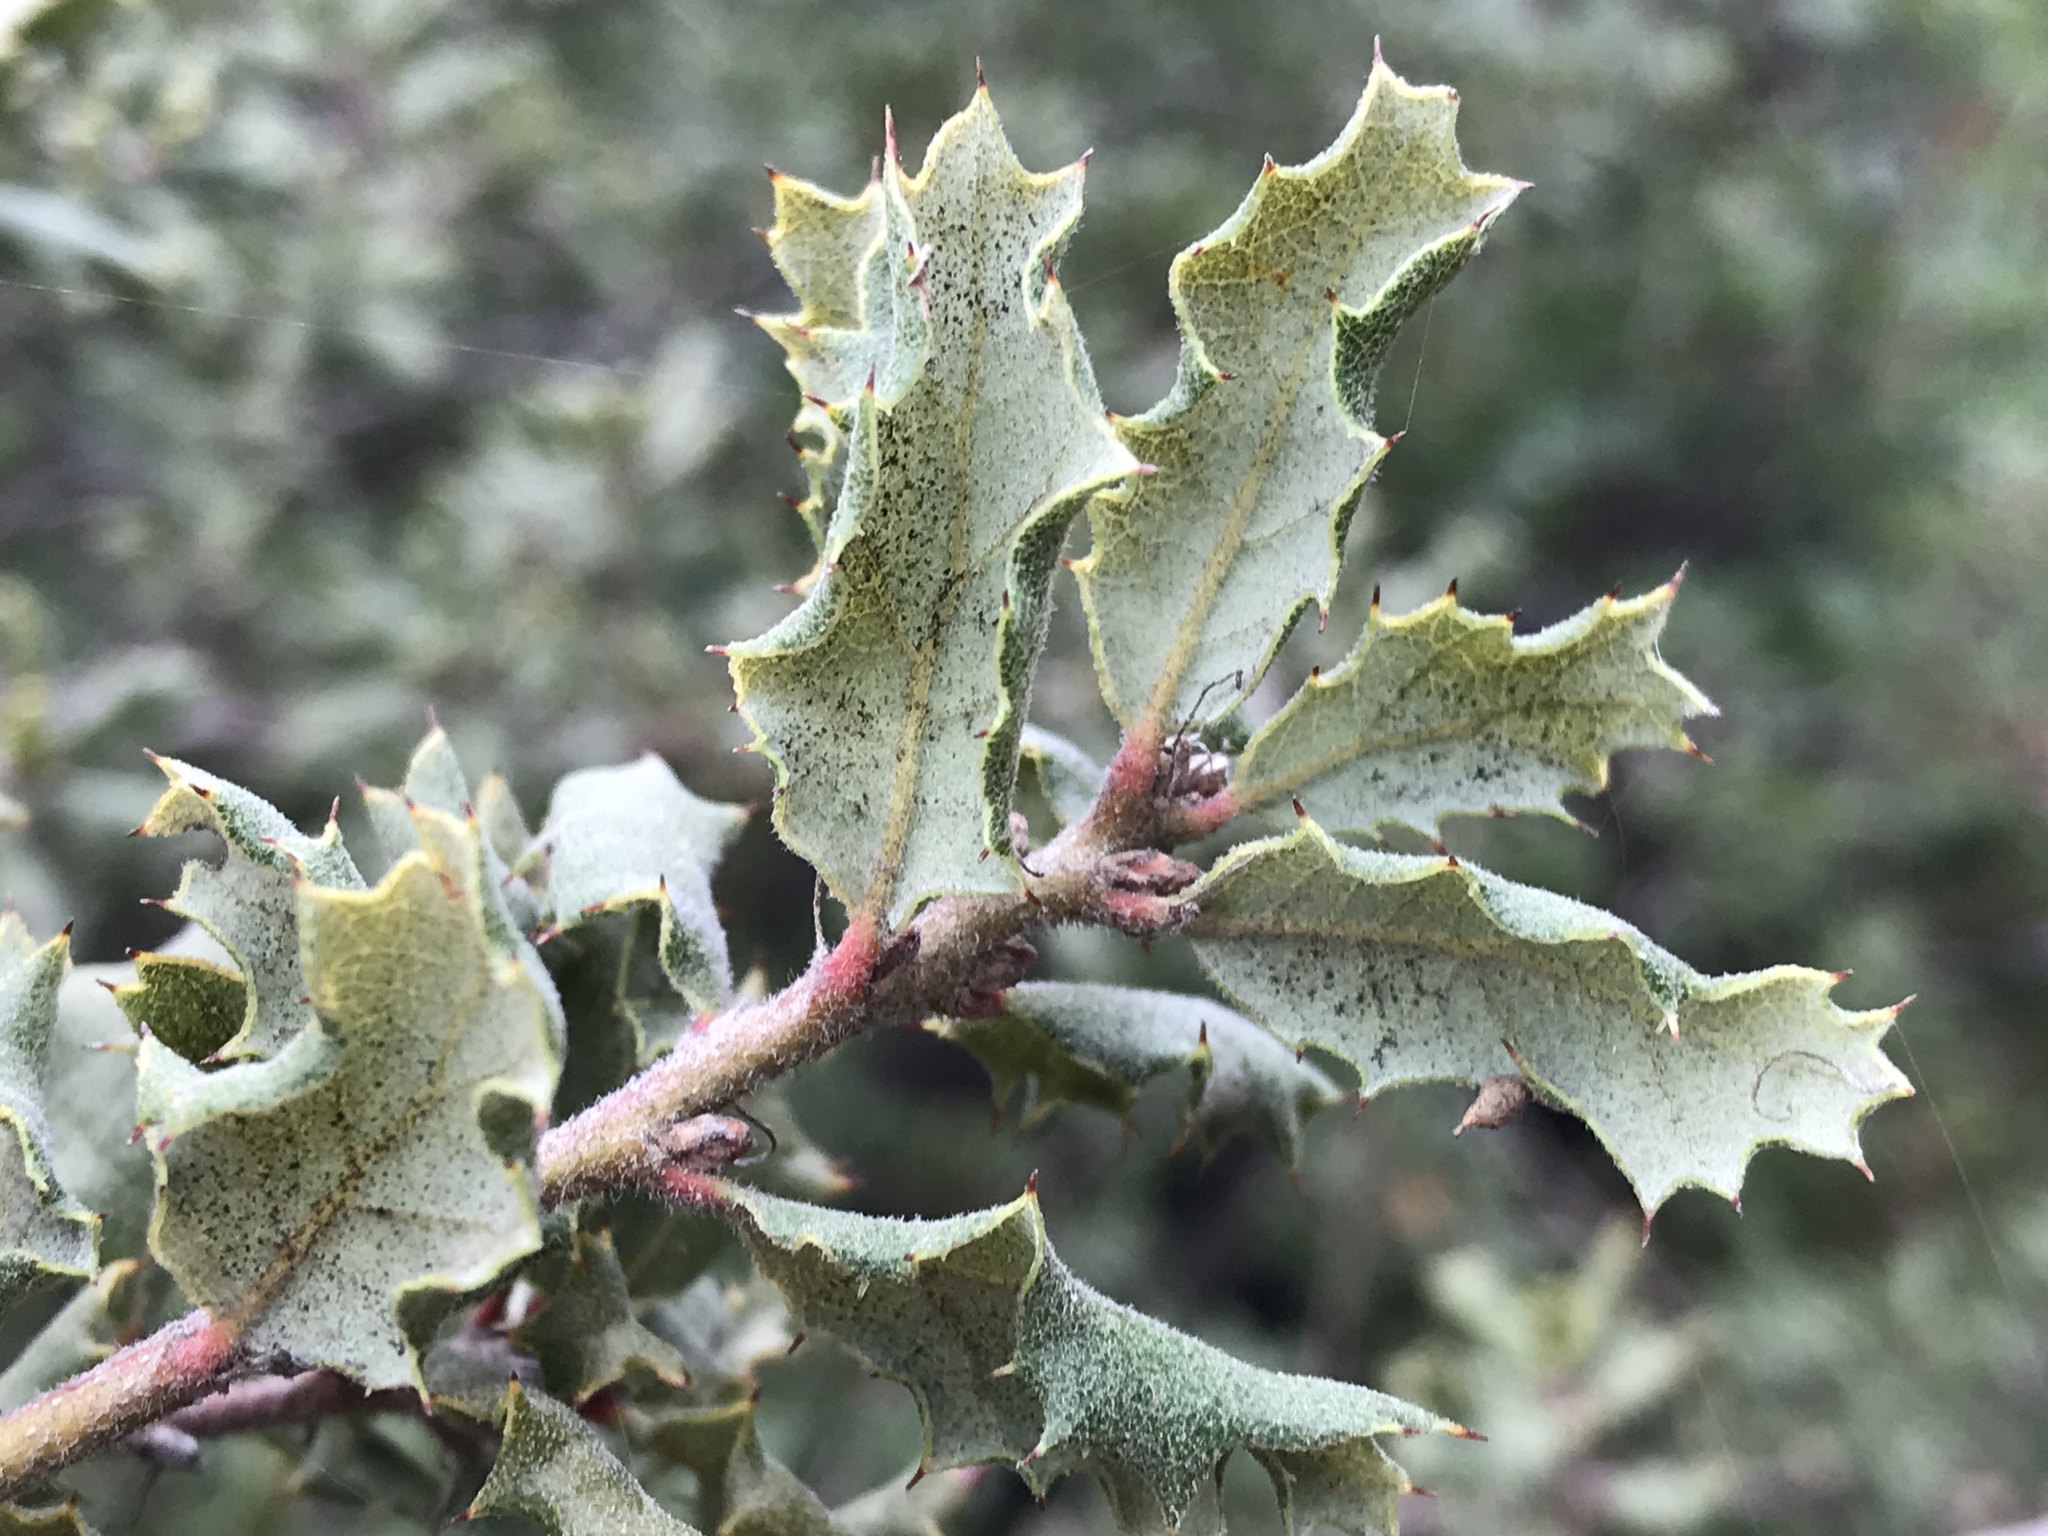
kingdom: Plantae
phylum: Tracheophyta
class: Magnoliopsida
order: Fagales
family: Fagaceae
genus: Quercus
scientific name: Quercus durata
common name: Leather oak
